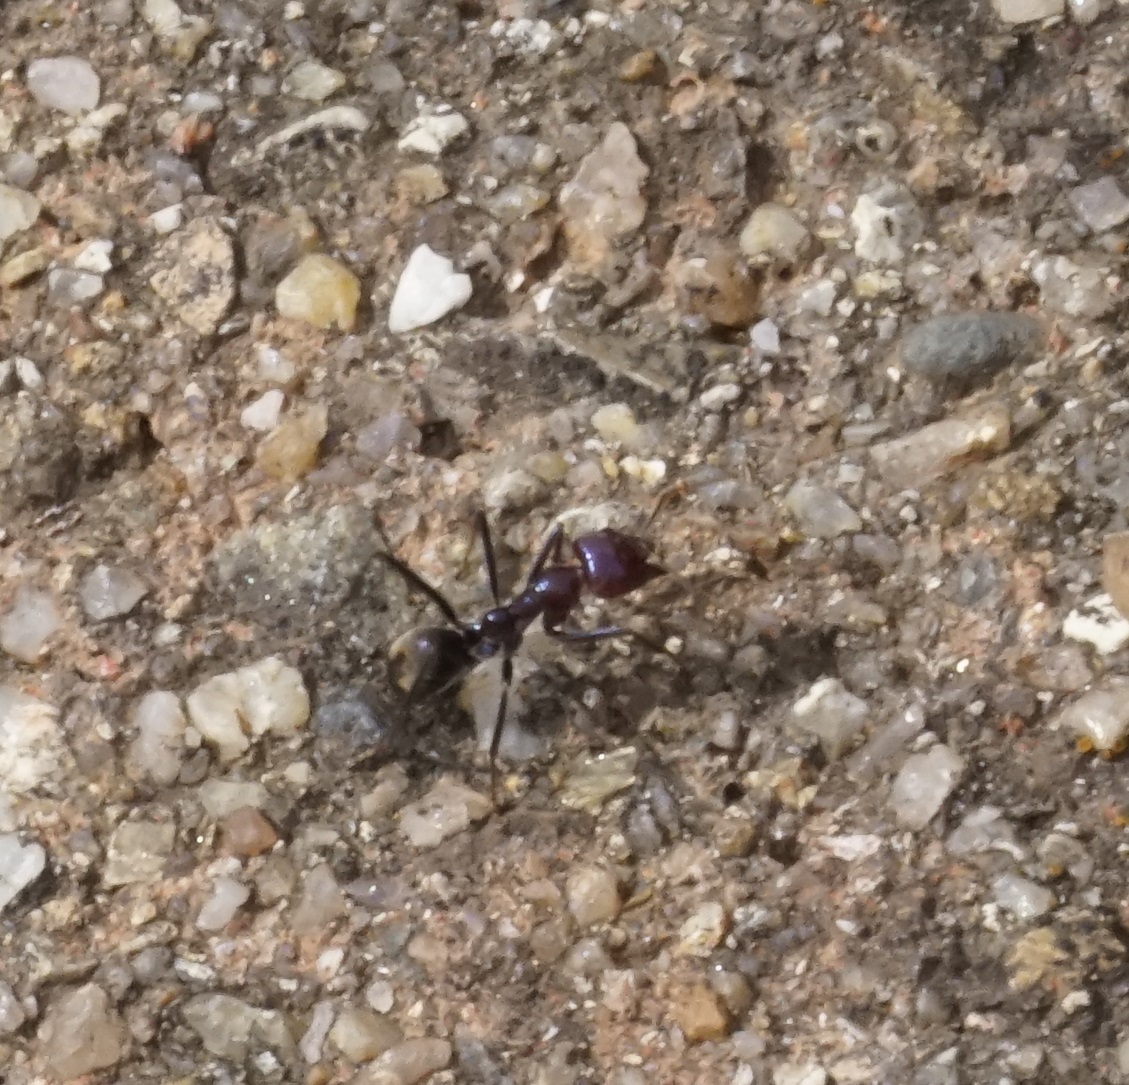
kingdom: Animalia
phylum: Arthropoda
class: Insecta
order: Hymenoptera
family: Formicidae
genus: Iridomyrmex
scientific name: Iridomyrmex purpureus
